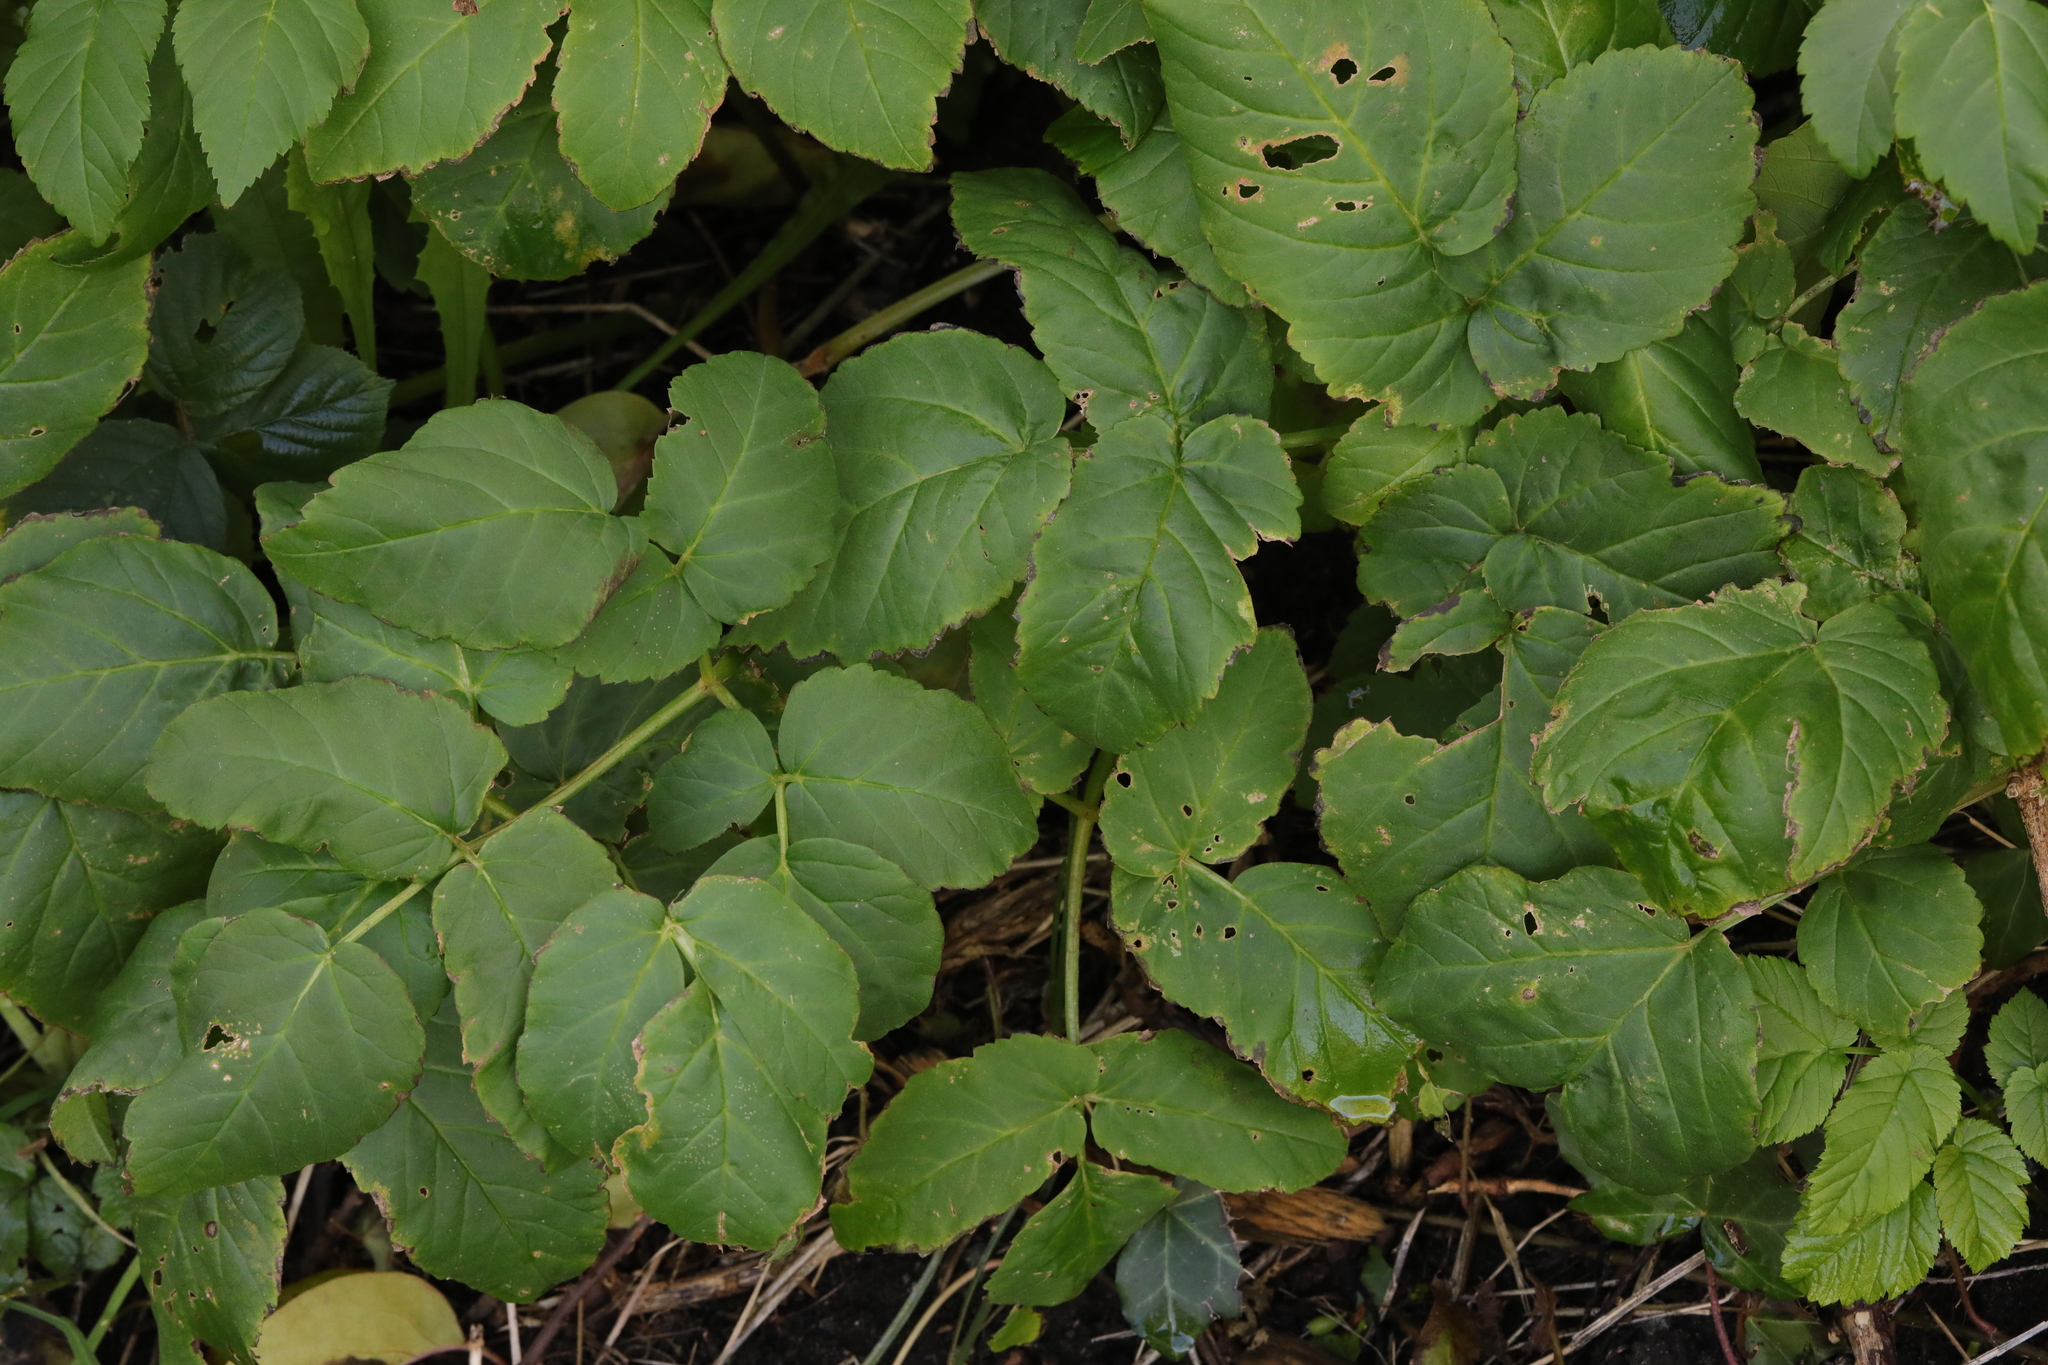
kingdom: Plantae
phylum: Tracheophyta
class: Magnoliopsida
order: Apiales
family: Apiaceae
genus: Aegopodium
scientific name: Aegopodium podagraria
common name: Ground-elder
